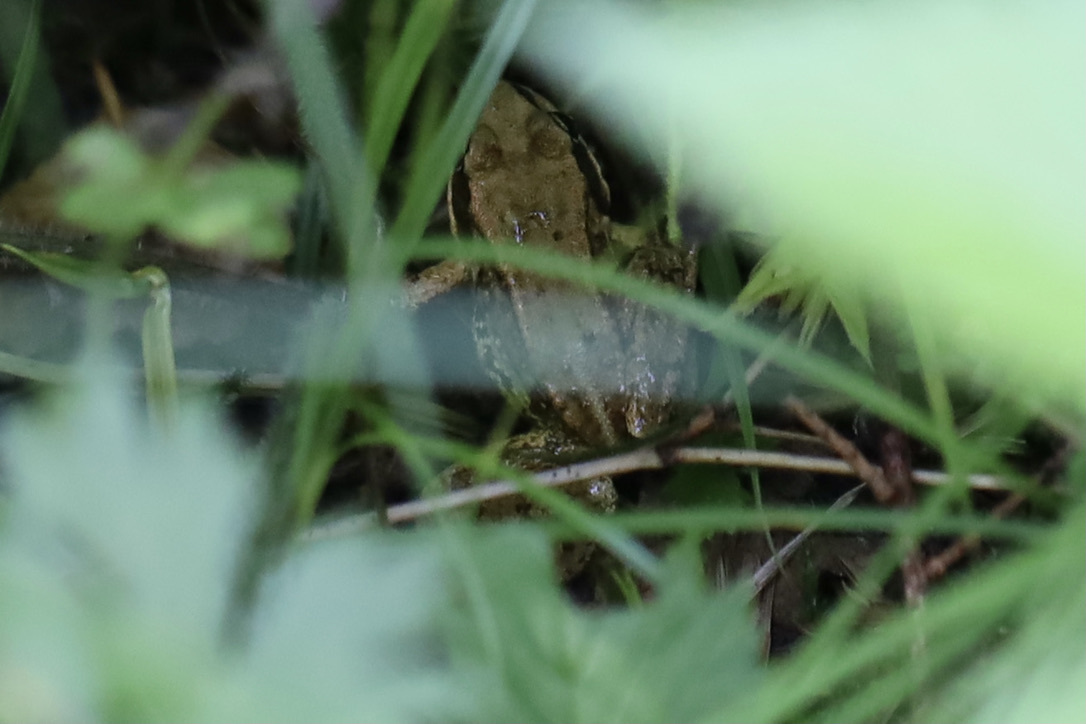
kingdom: Animalia
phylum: Chordata
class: Amphibia
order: Anura
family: Ranidae
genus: Rana
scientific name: Rana cascadae
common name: Cascades frog
